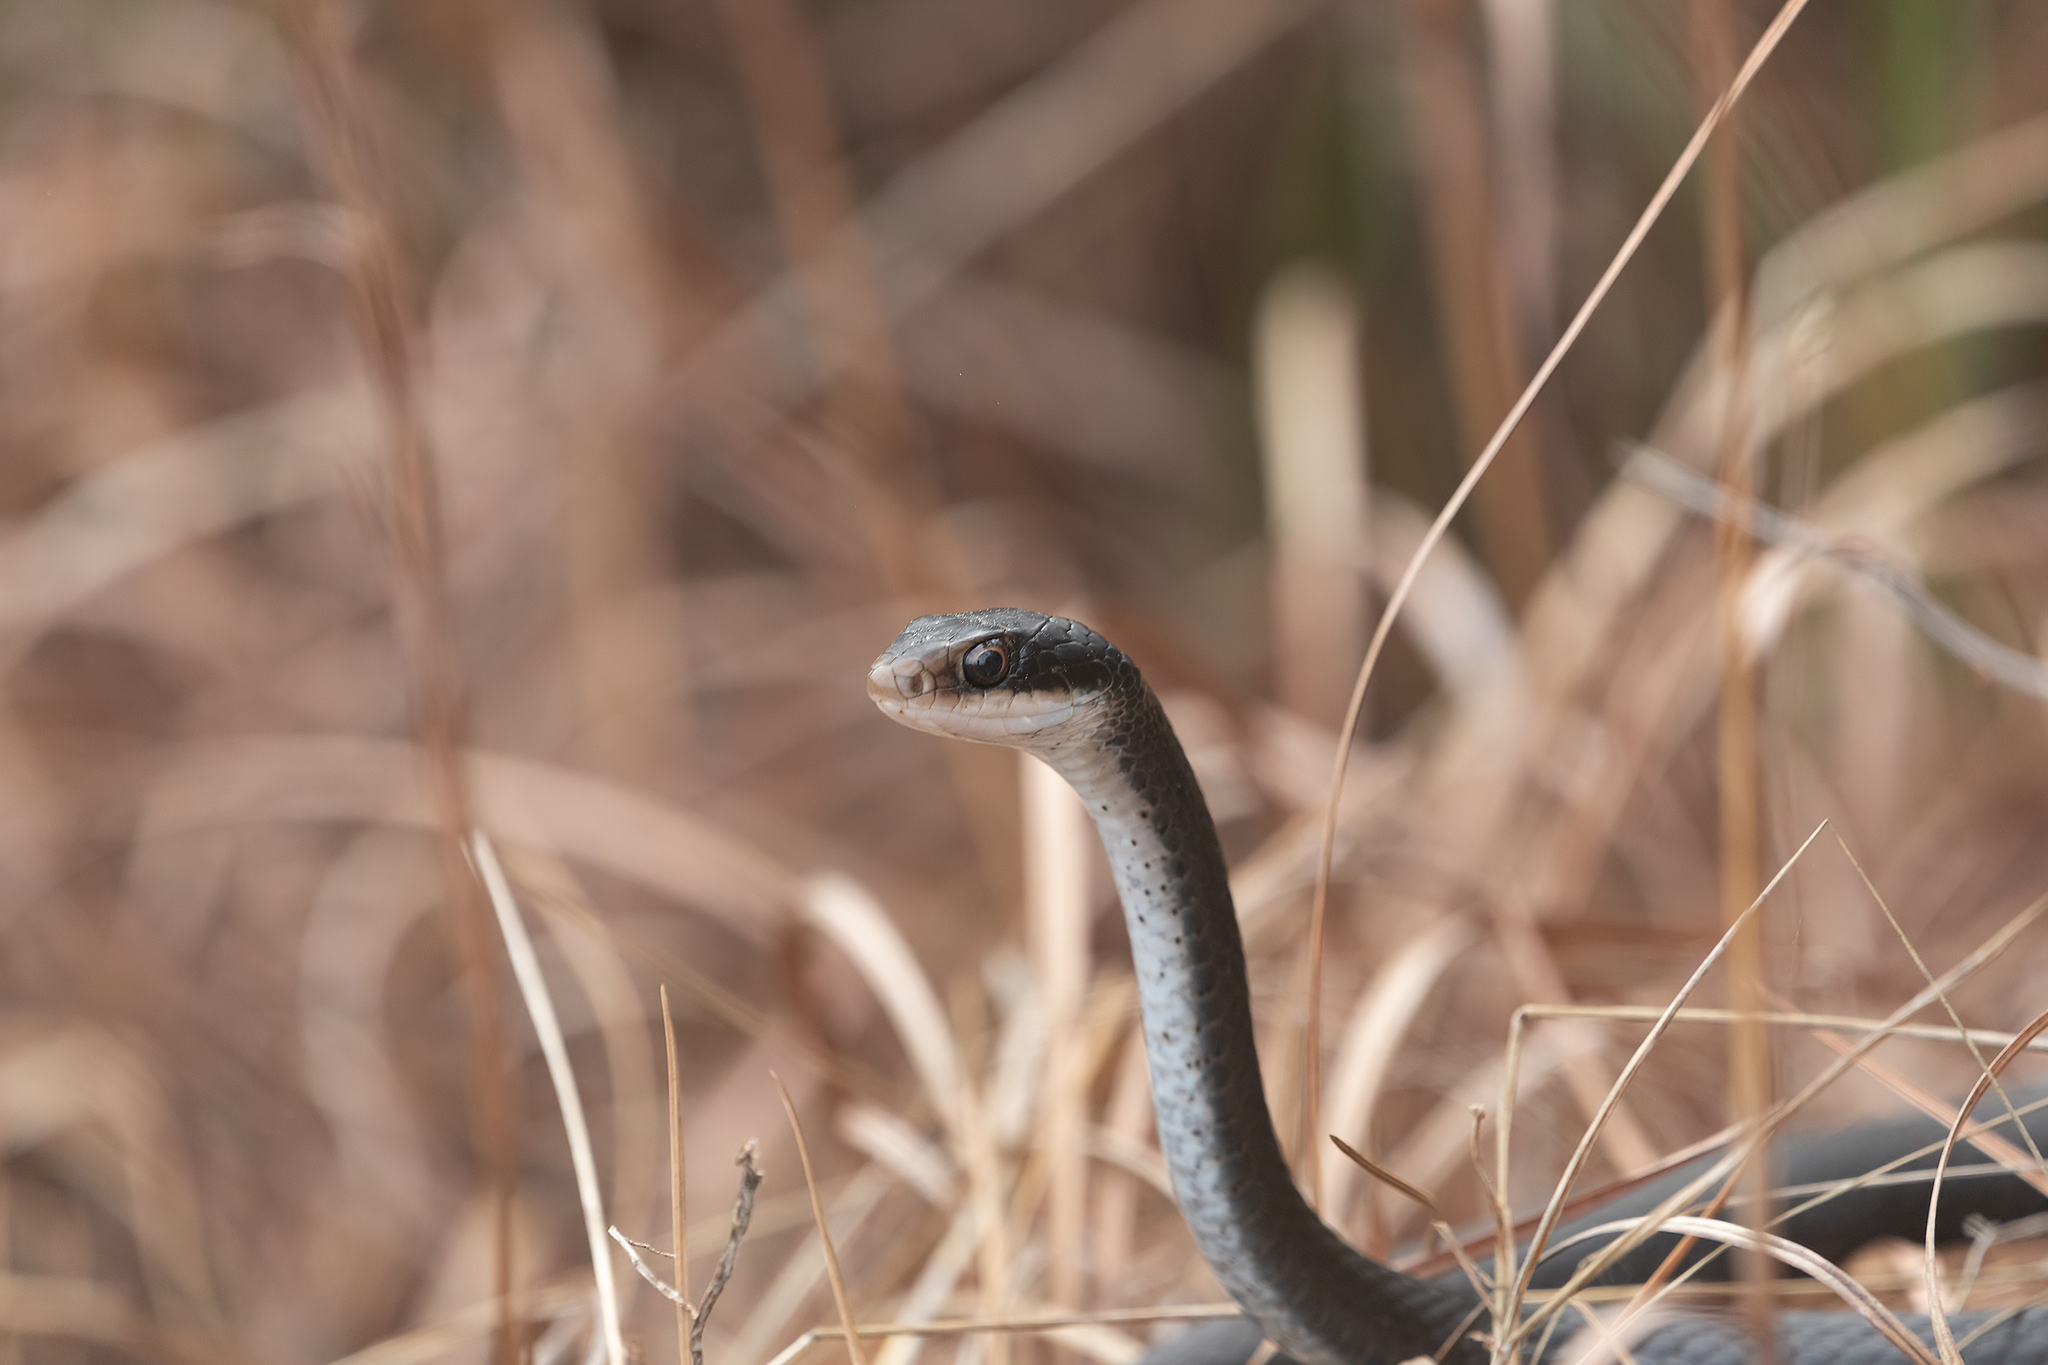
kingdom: Animalia
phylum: Chordata
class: Squamata
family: Colubridae
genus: Coluber
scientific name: Coluber constrictor
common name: Eastern racer
